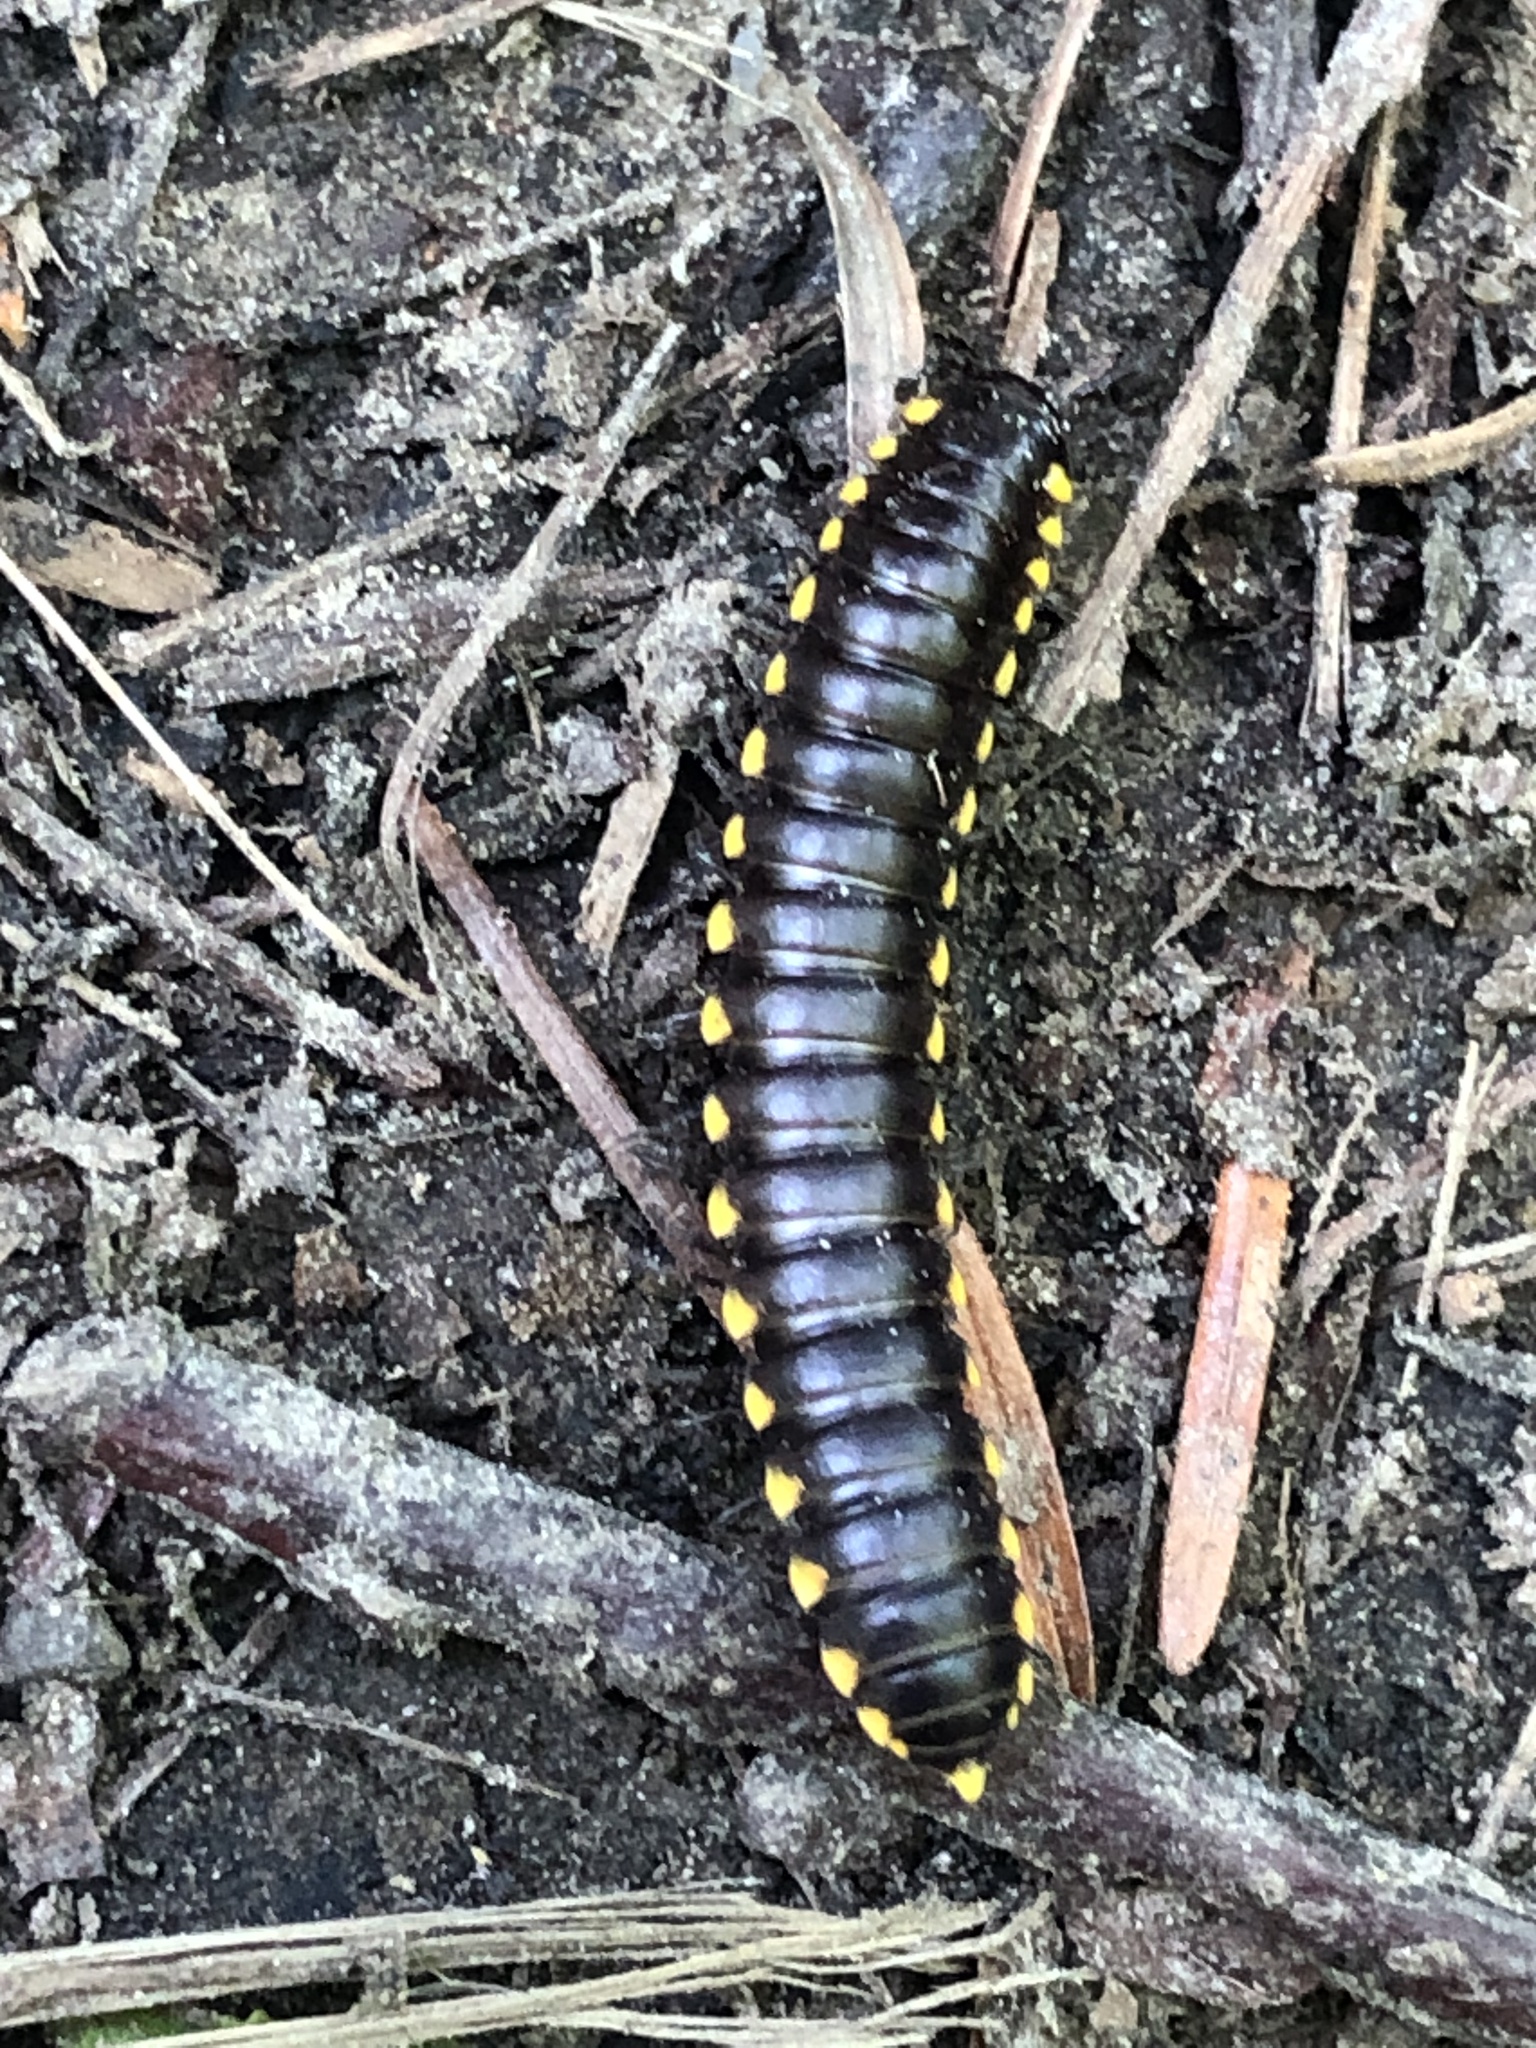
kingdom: Animalia
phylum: Arthropoda
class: Diplopoda
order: Polydesmida
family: Xystodesmidae
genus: Harpaphe
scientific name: Harpaphe haydeniana
